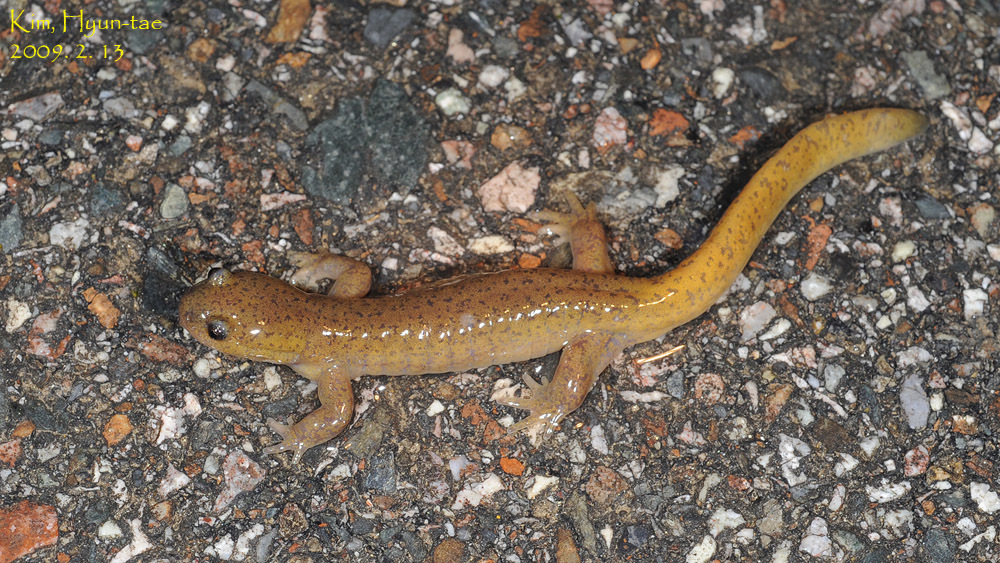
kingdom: Animalia
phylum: Chordata
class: Amphibia
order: Caudata
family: Hynobiidae
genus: Hynobius
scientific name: Hynobius leechii
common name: Gensan salamander
